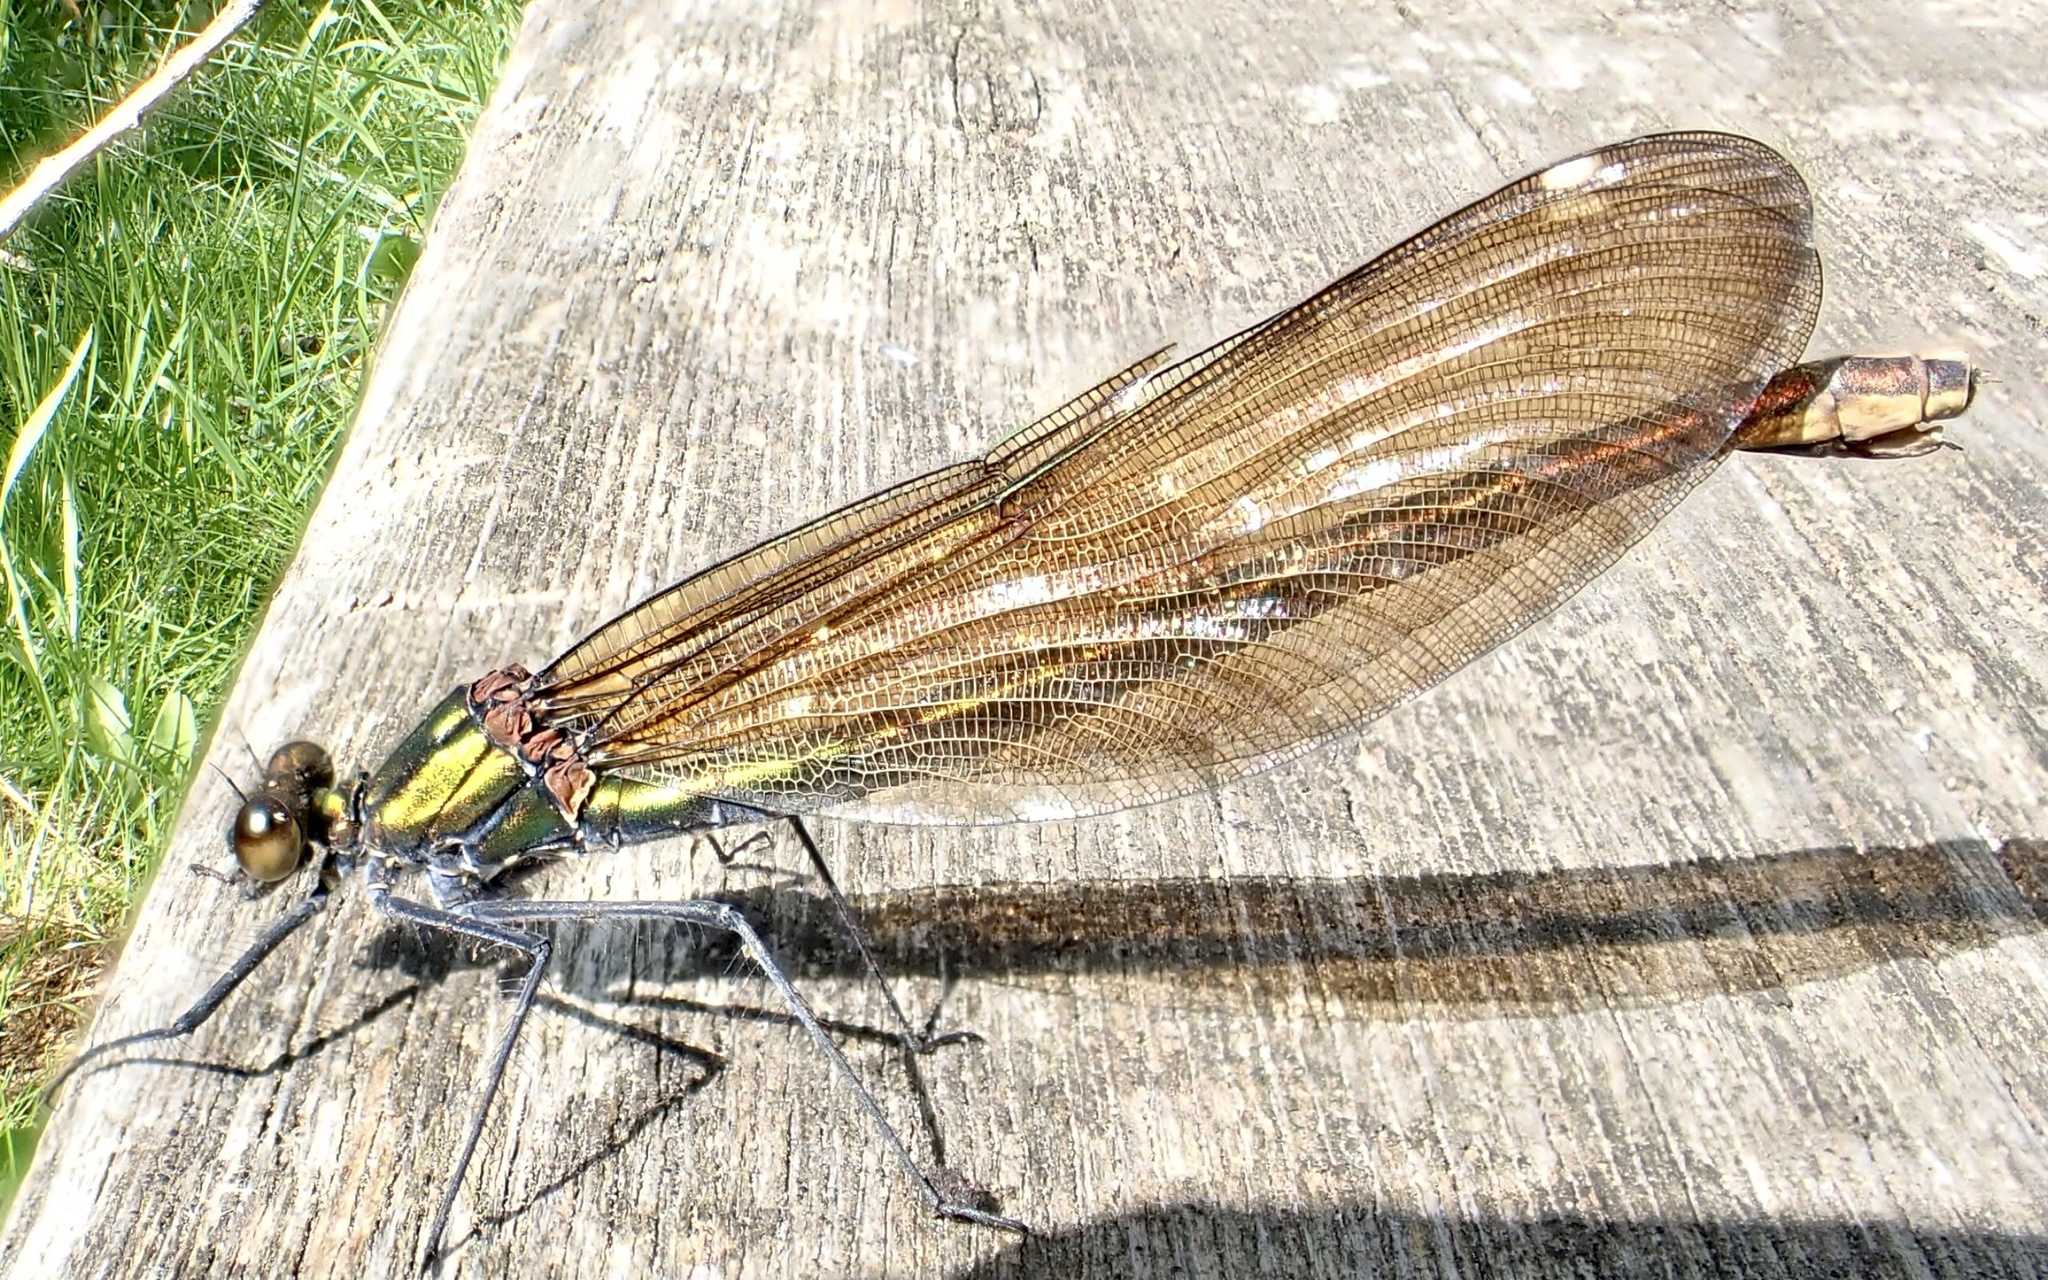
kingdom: Animalia
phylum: Arthropoda
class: Insecta
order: Odonata
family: Calopterygidae
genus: Calopteryx
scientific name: Calopteryx virgo
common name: Beautiful demoiselle
